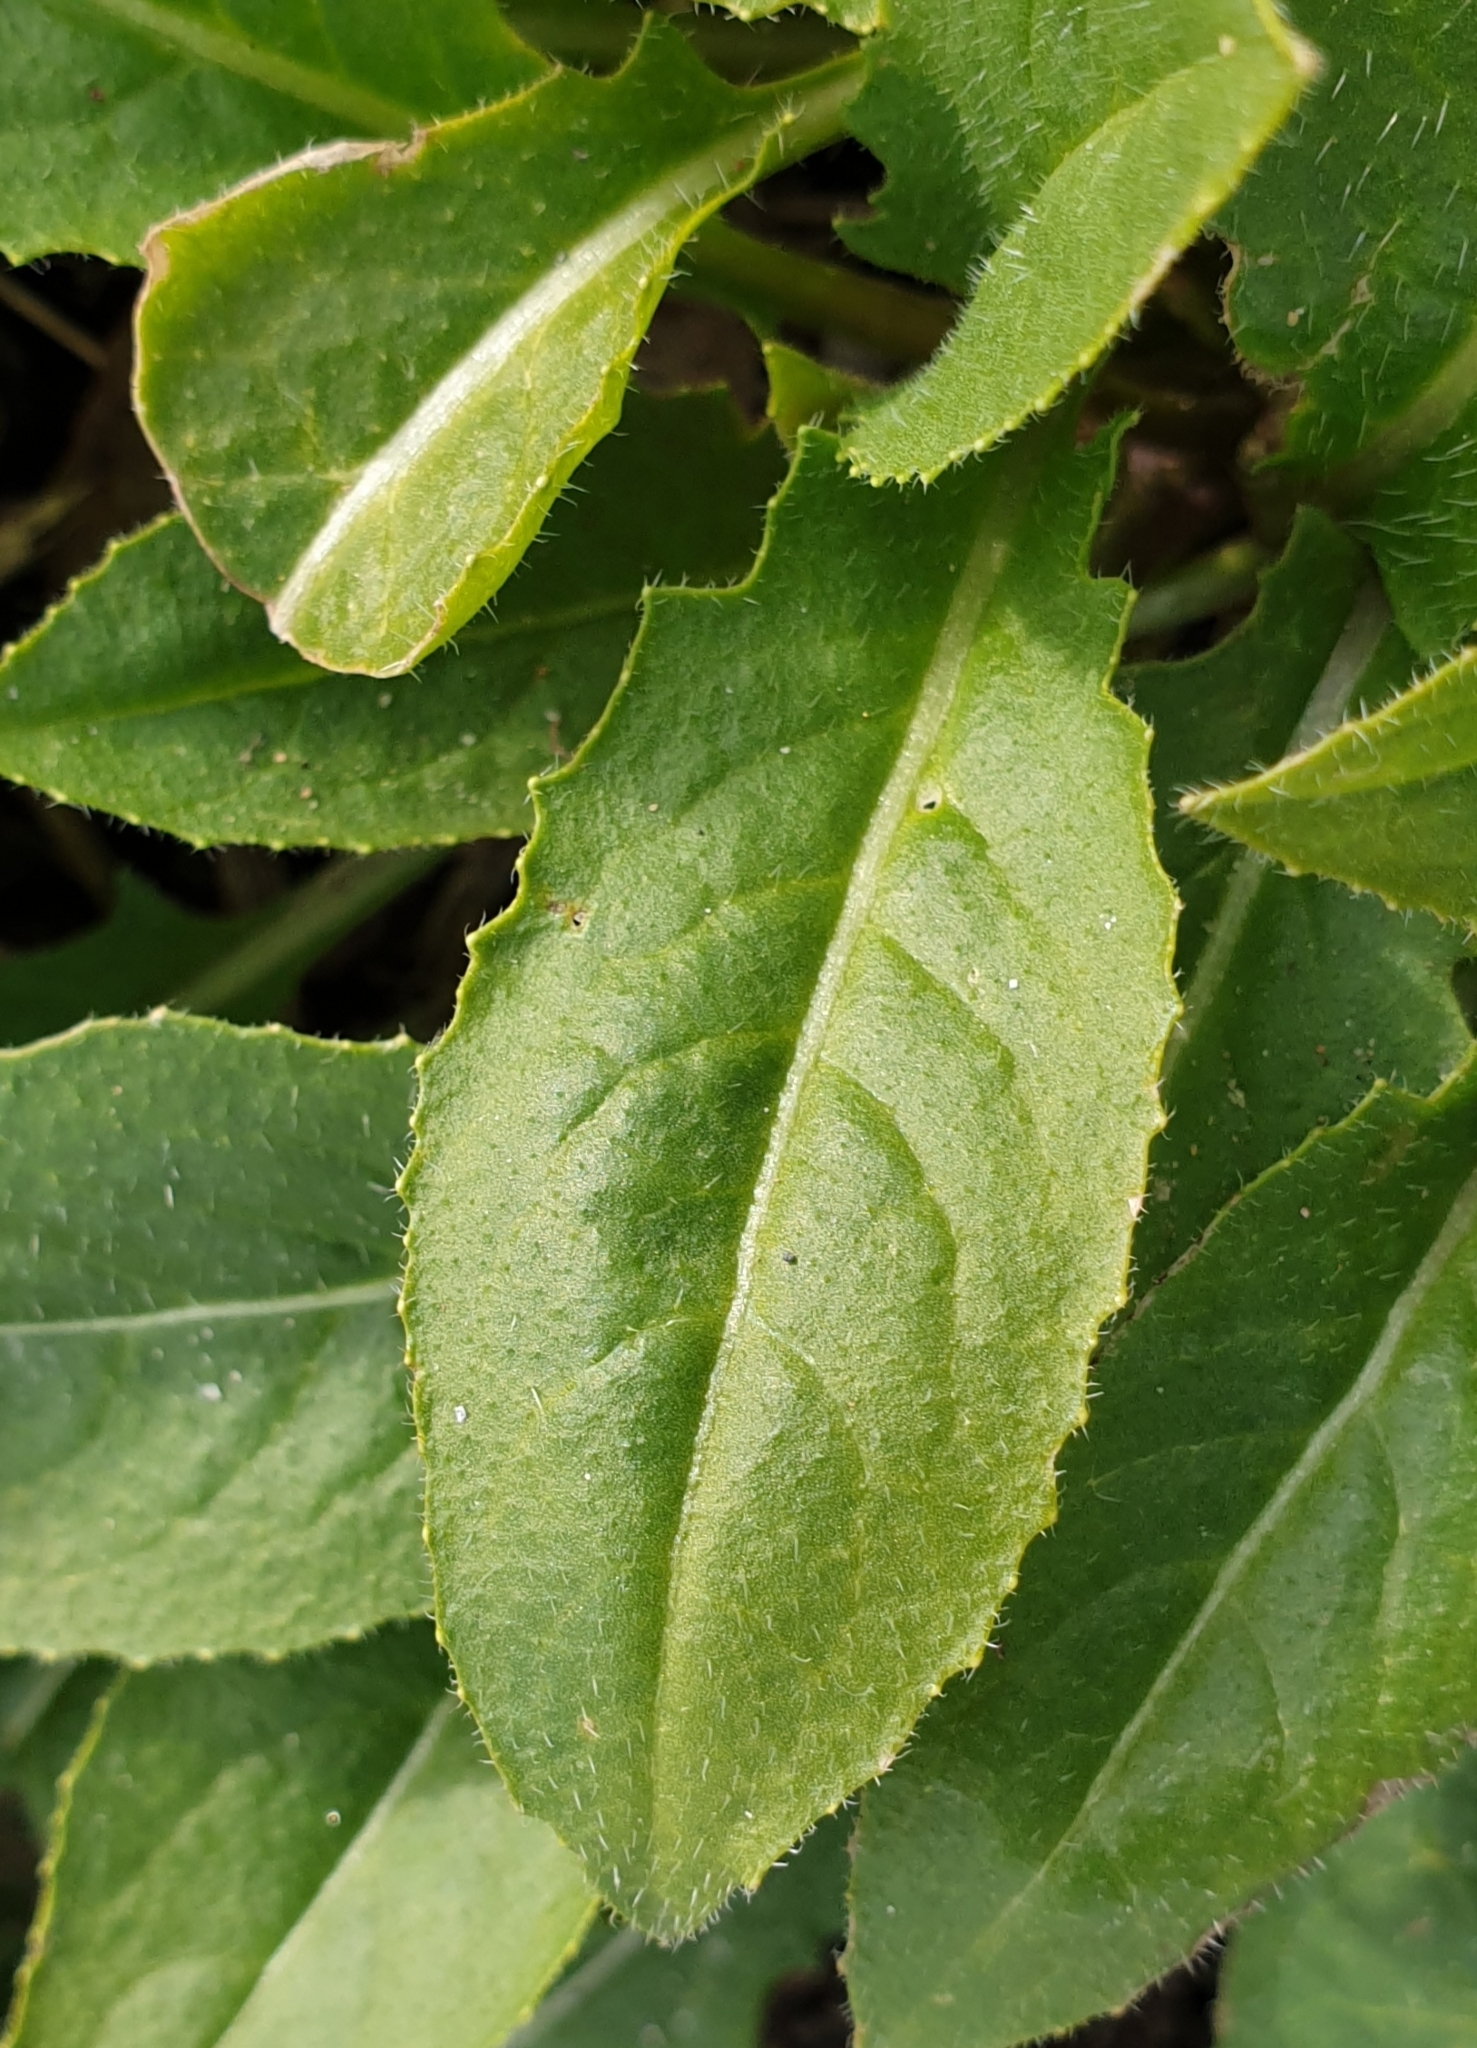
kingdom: Plantae
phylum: Tracheophyta
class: Magnoliopsida
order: Brassicales
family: Brassicaceae
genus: Hesperis
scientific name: Hesperis matronalis
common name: Dame's-violet
